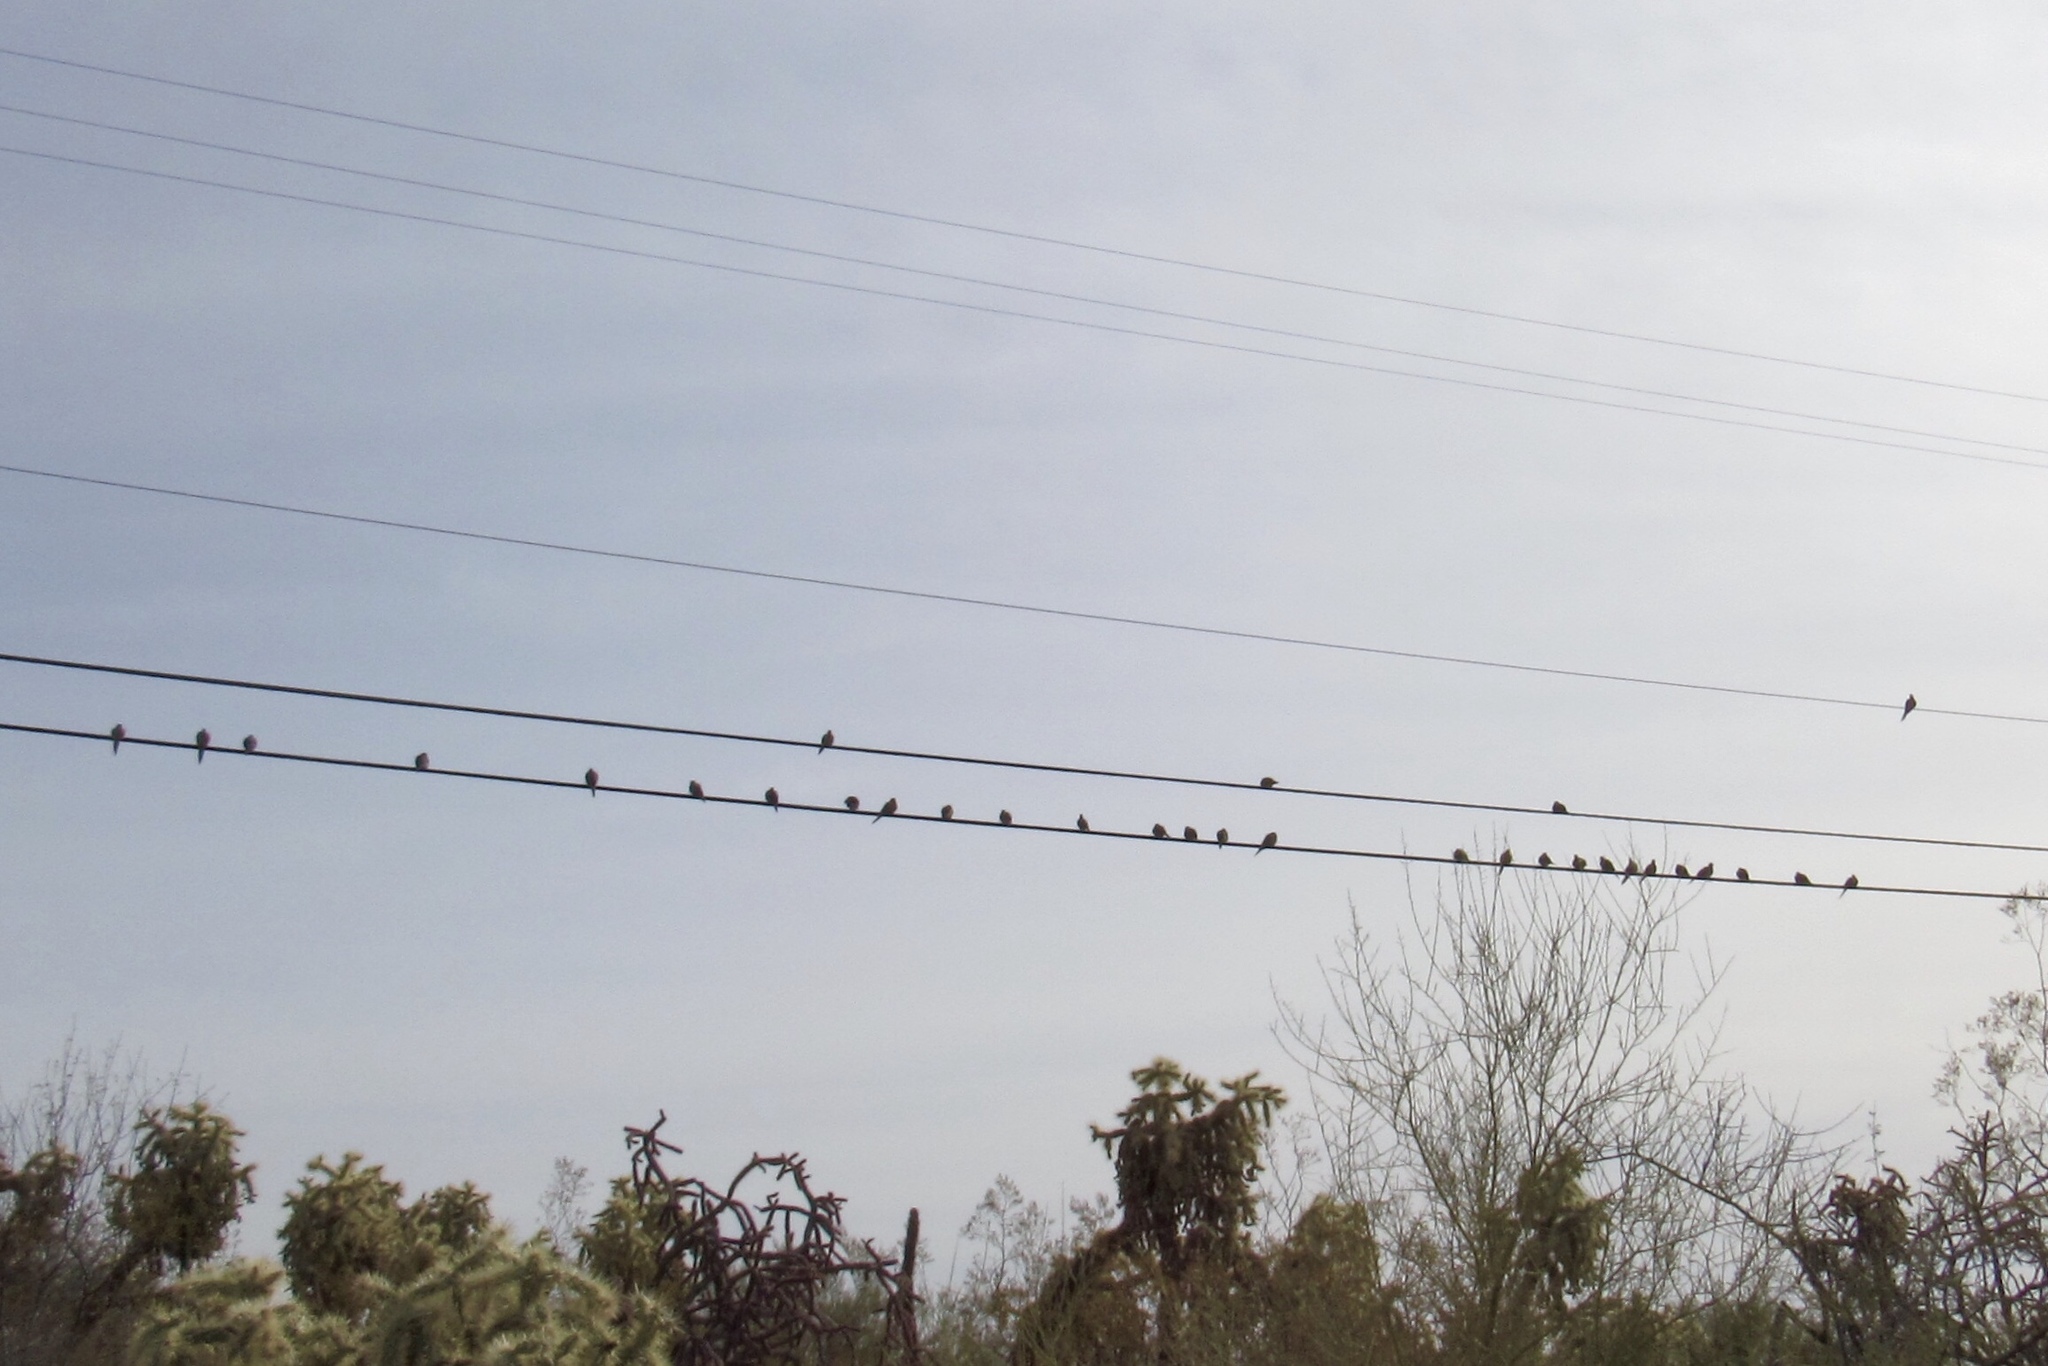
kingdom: Animalia
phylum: Chordata
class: Aves
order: Columbiformes
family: Columbidae
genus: Zenaida
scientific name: Zenaida macroura
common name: Mourning dove
